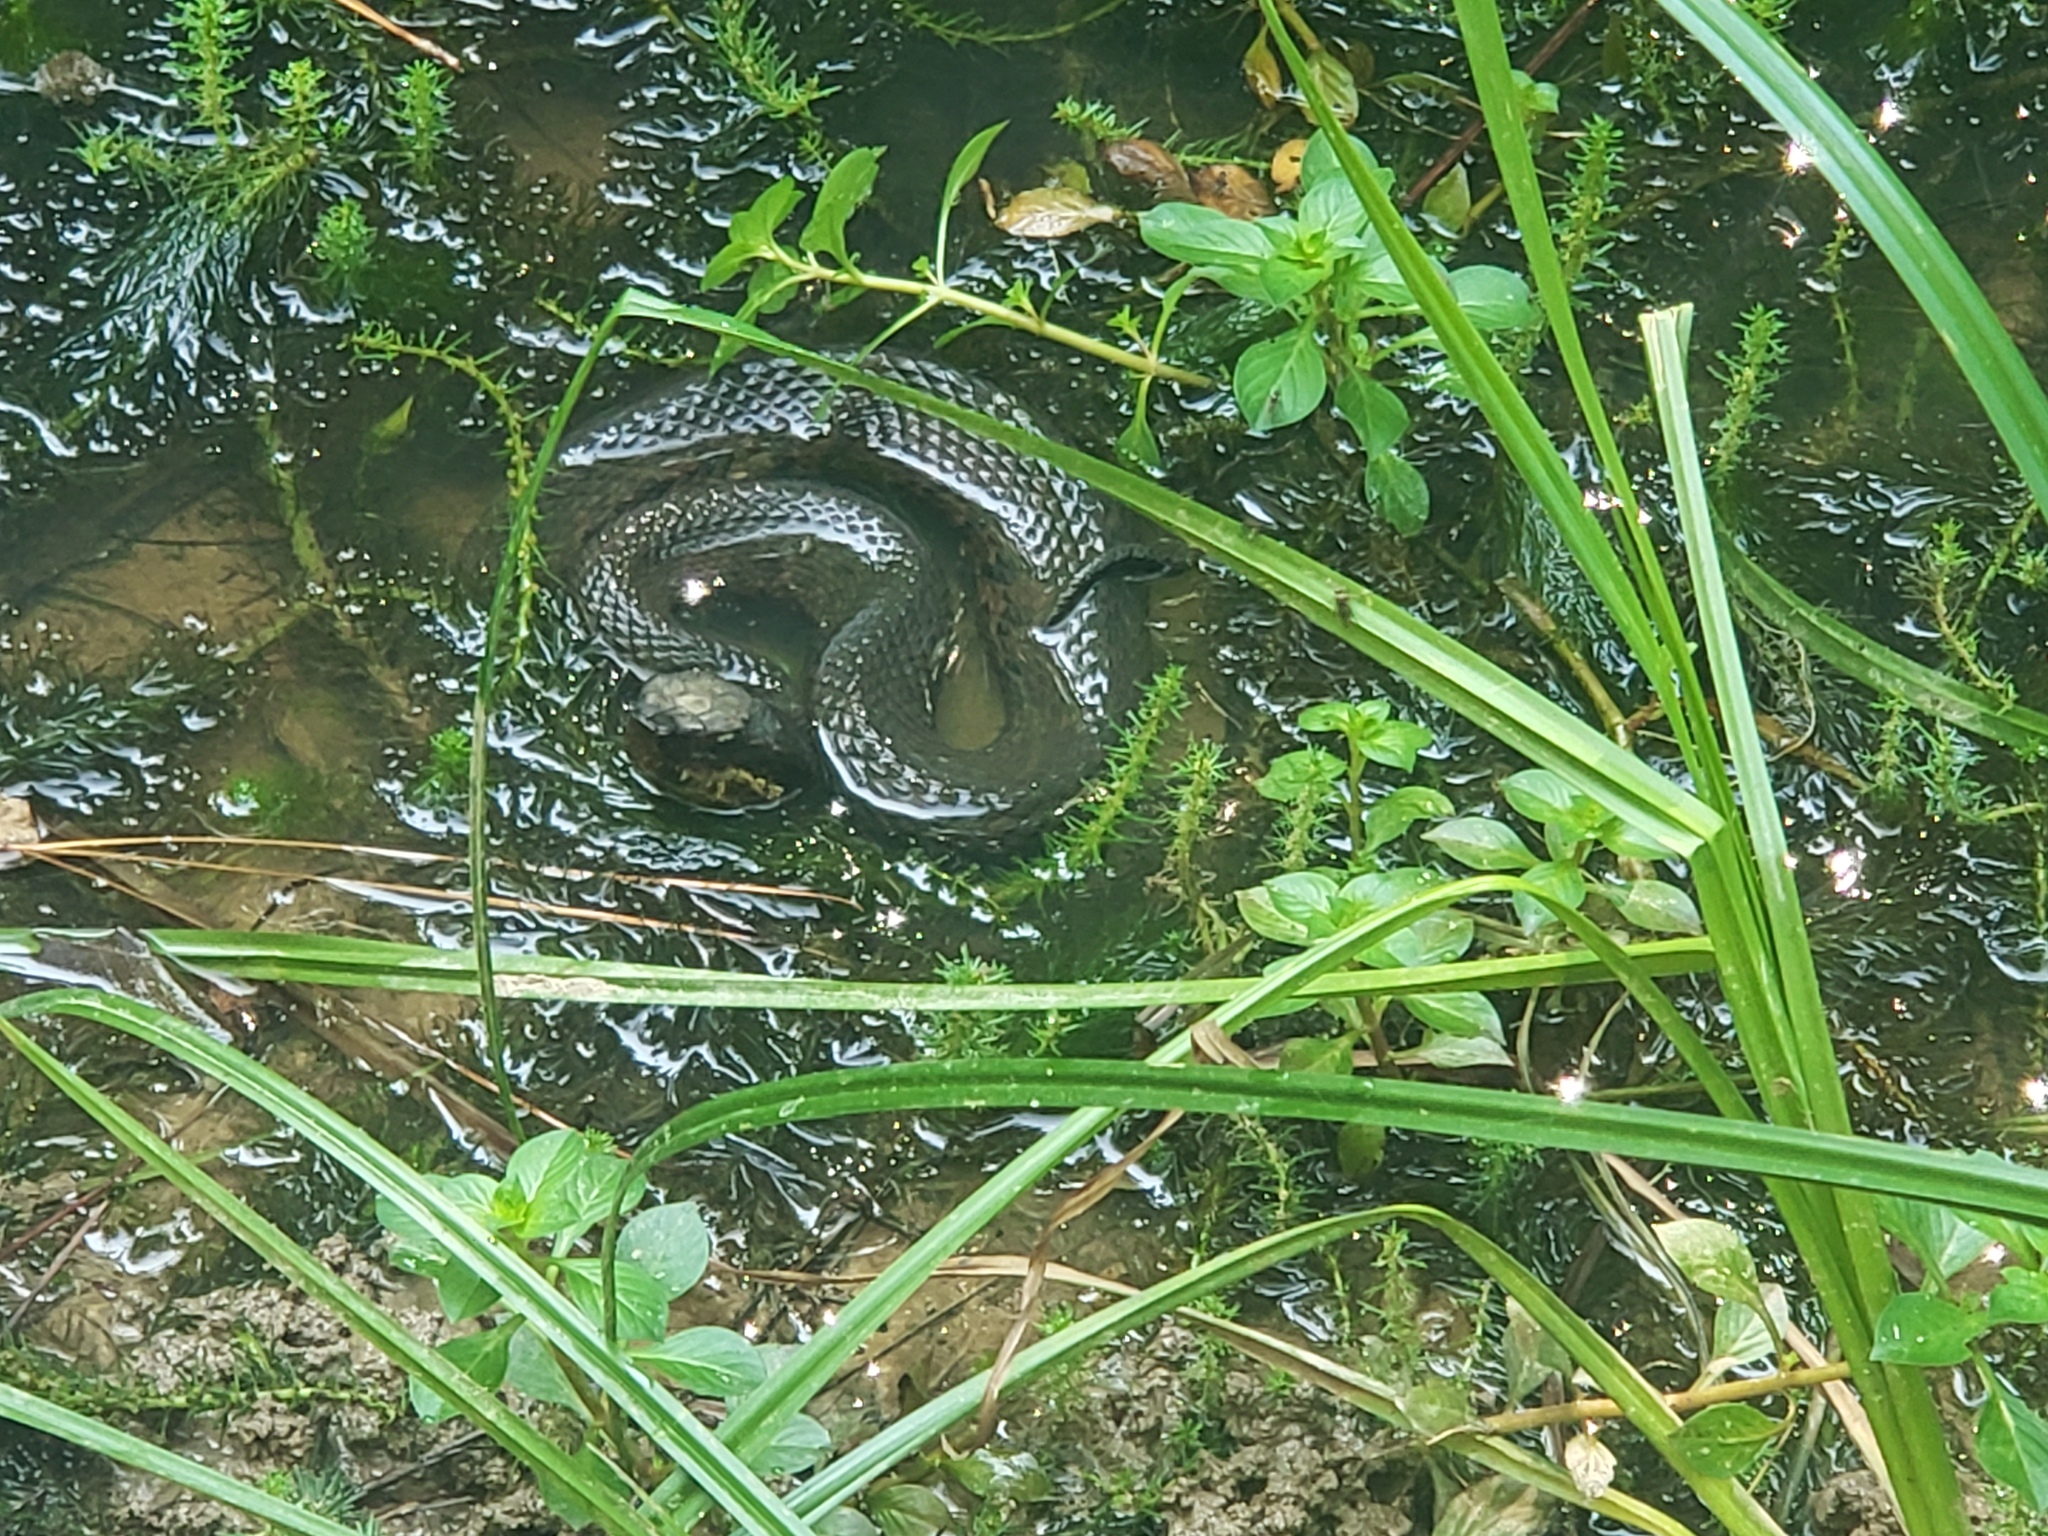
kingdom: Animalia
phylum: Chordata
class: Squamata
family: Viperidae
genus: Agkistrodon
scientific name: Agkistrodon piscivorus
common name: Cottonmouth
